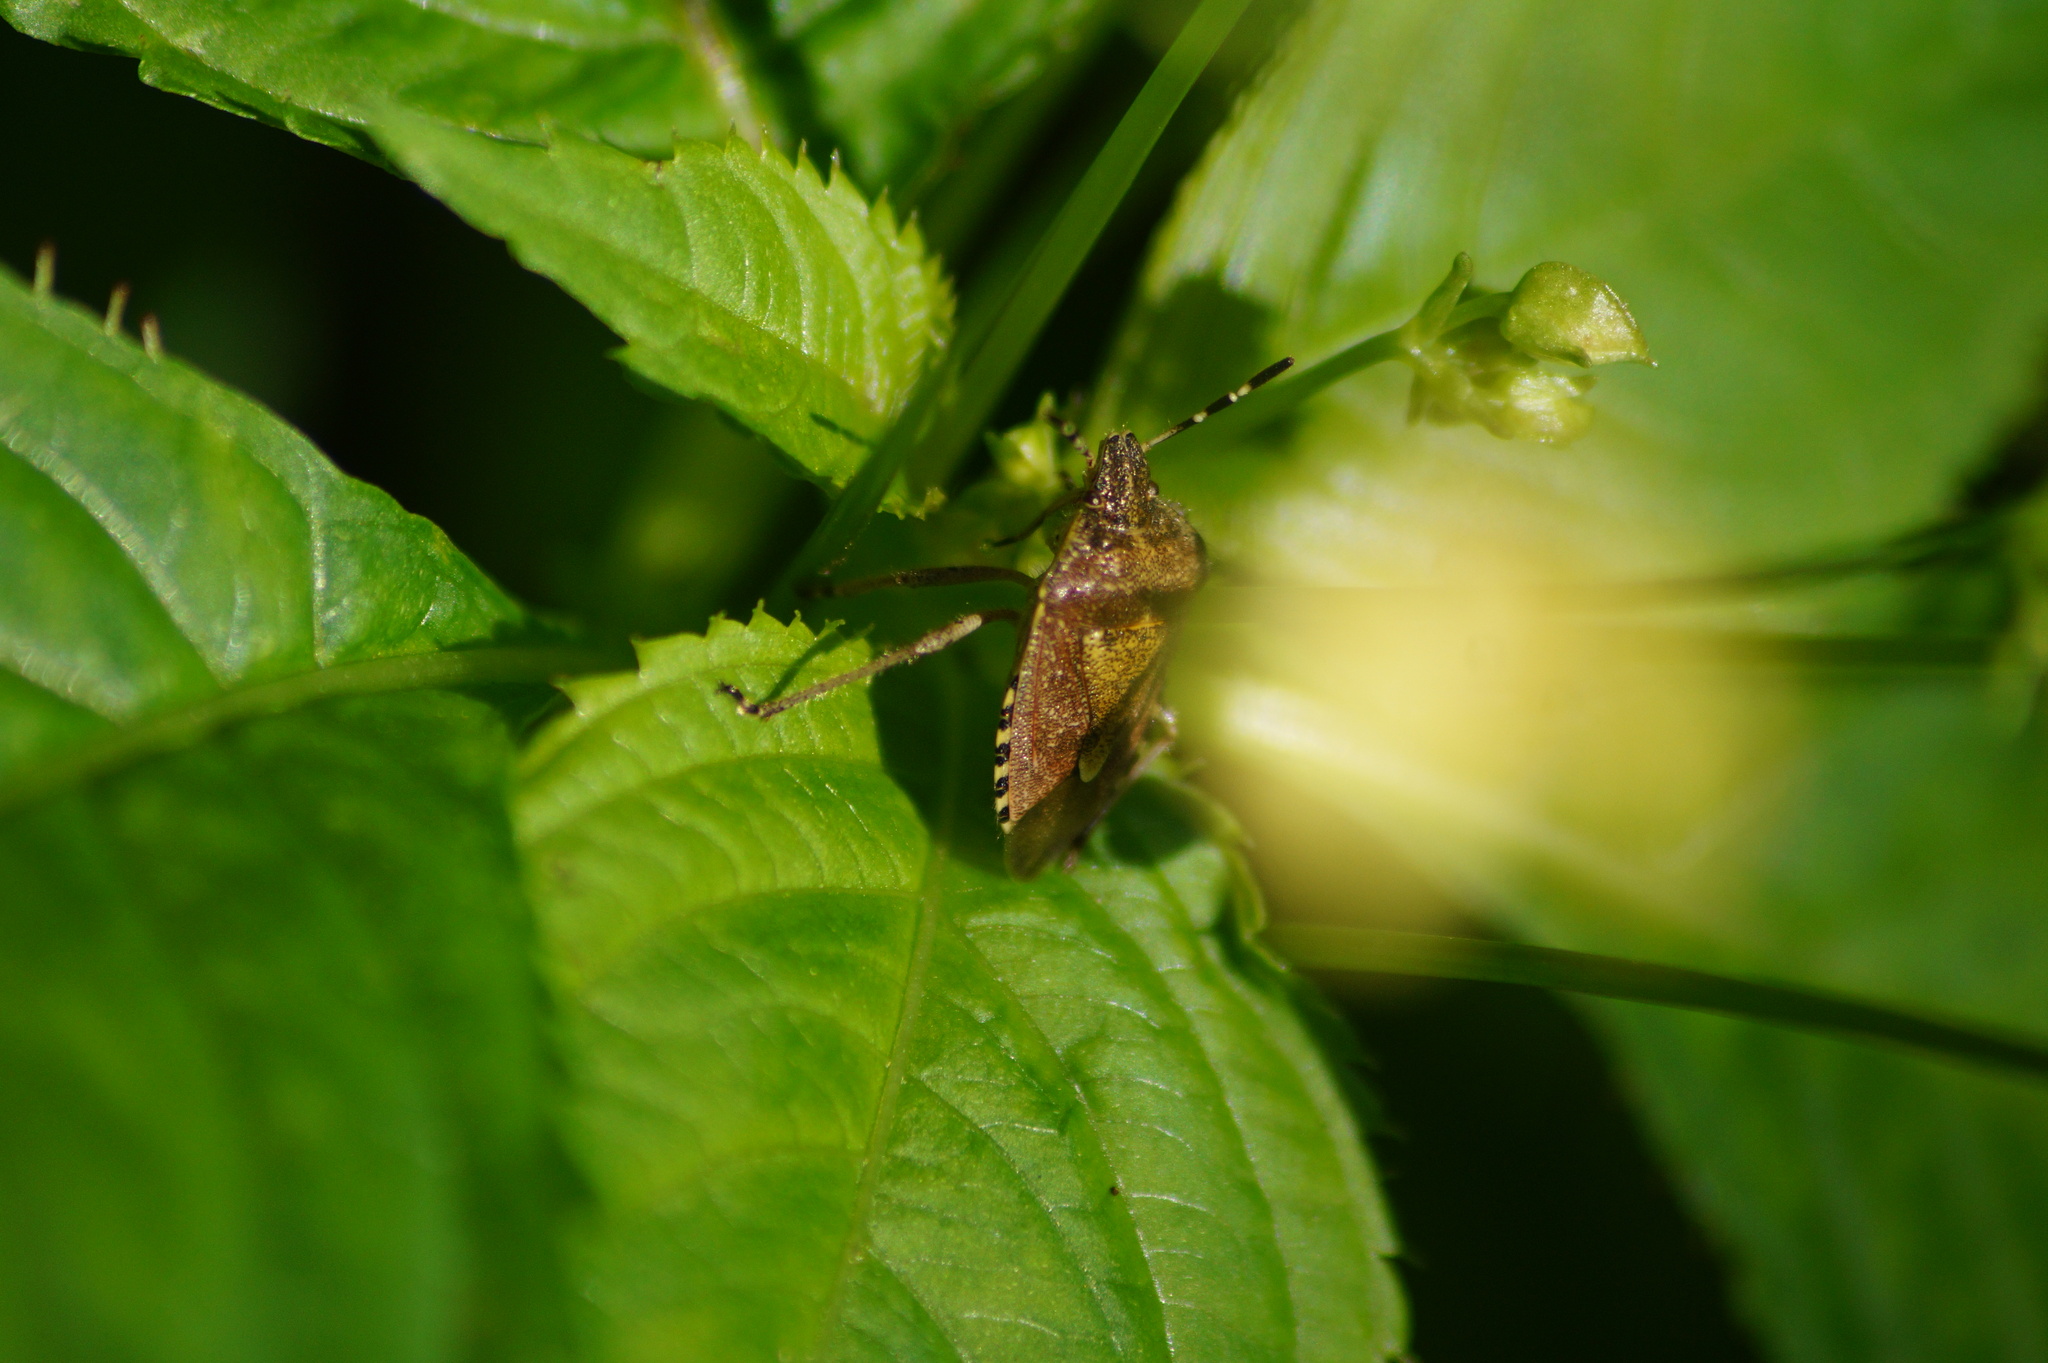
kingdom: Animalia
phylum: Arthropoda
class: Insecta
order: Hemiptera
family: Pentatomidae
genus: Dolycoris
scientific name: Dolycoris baccarum
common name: Sloe bug
